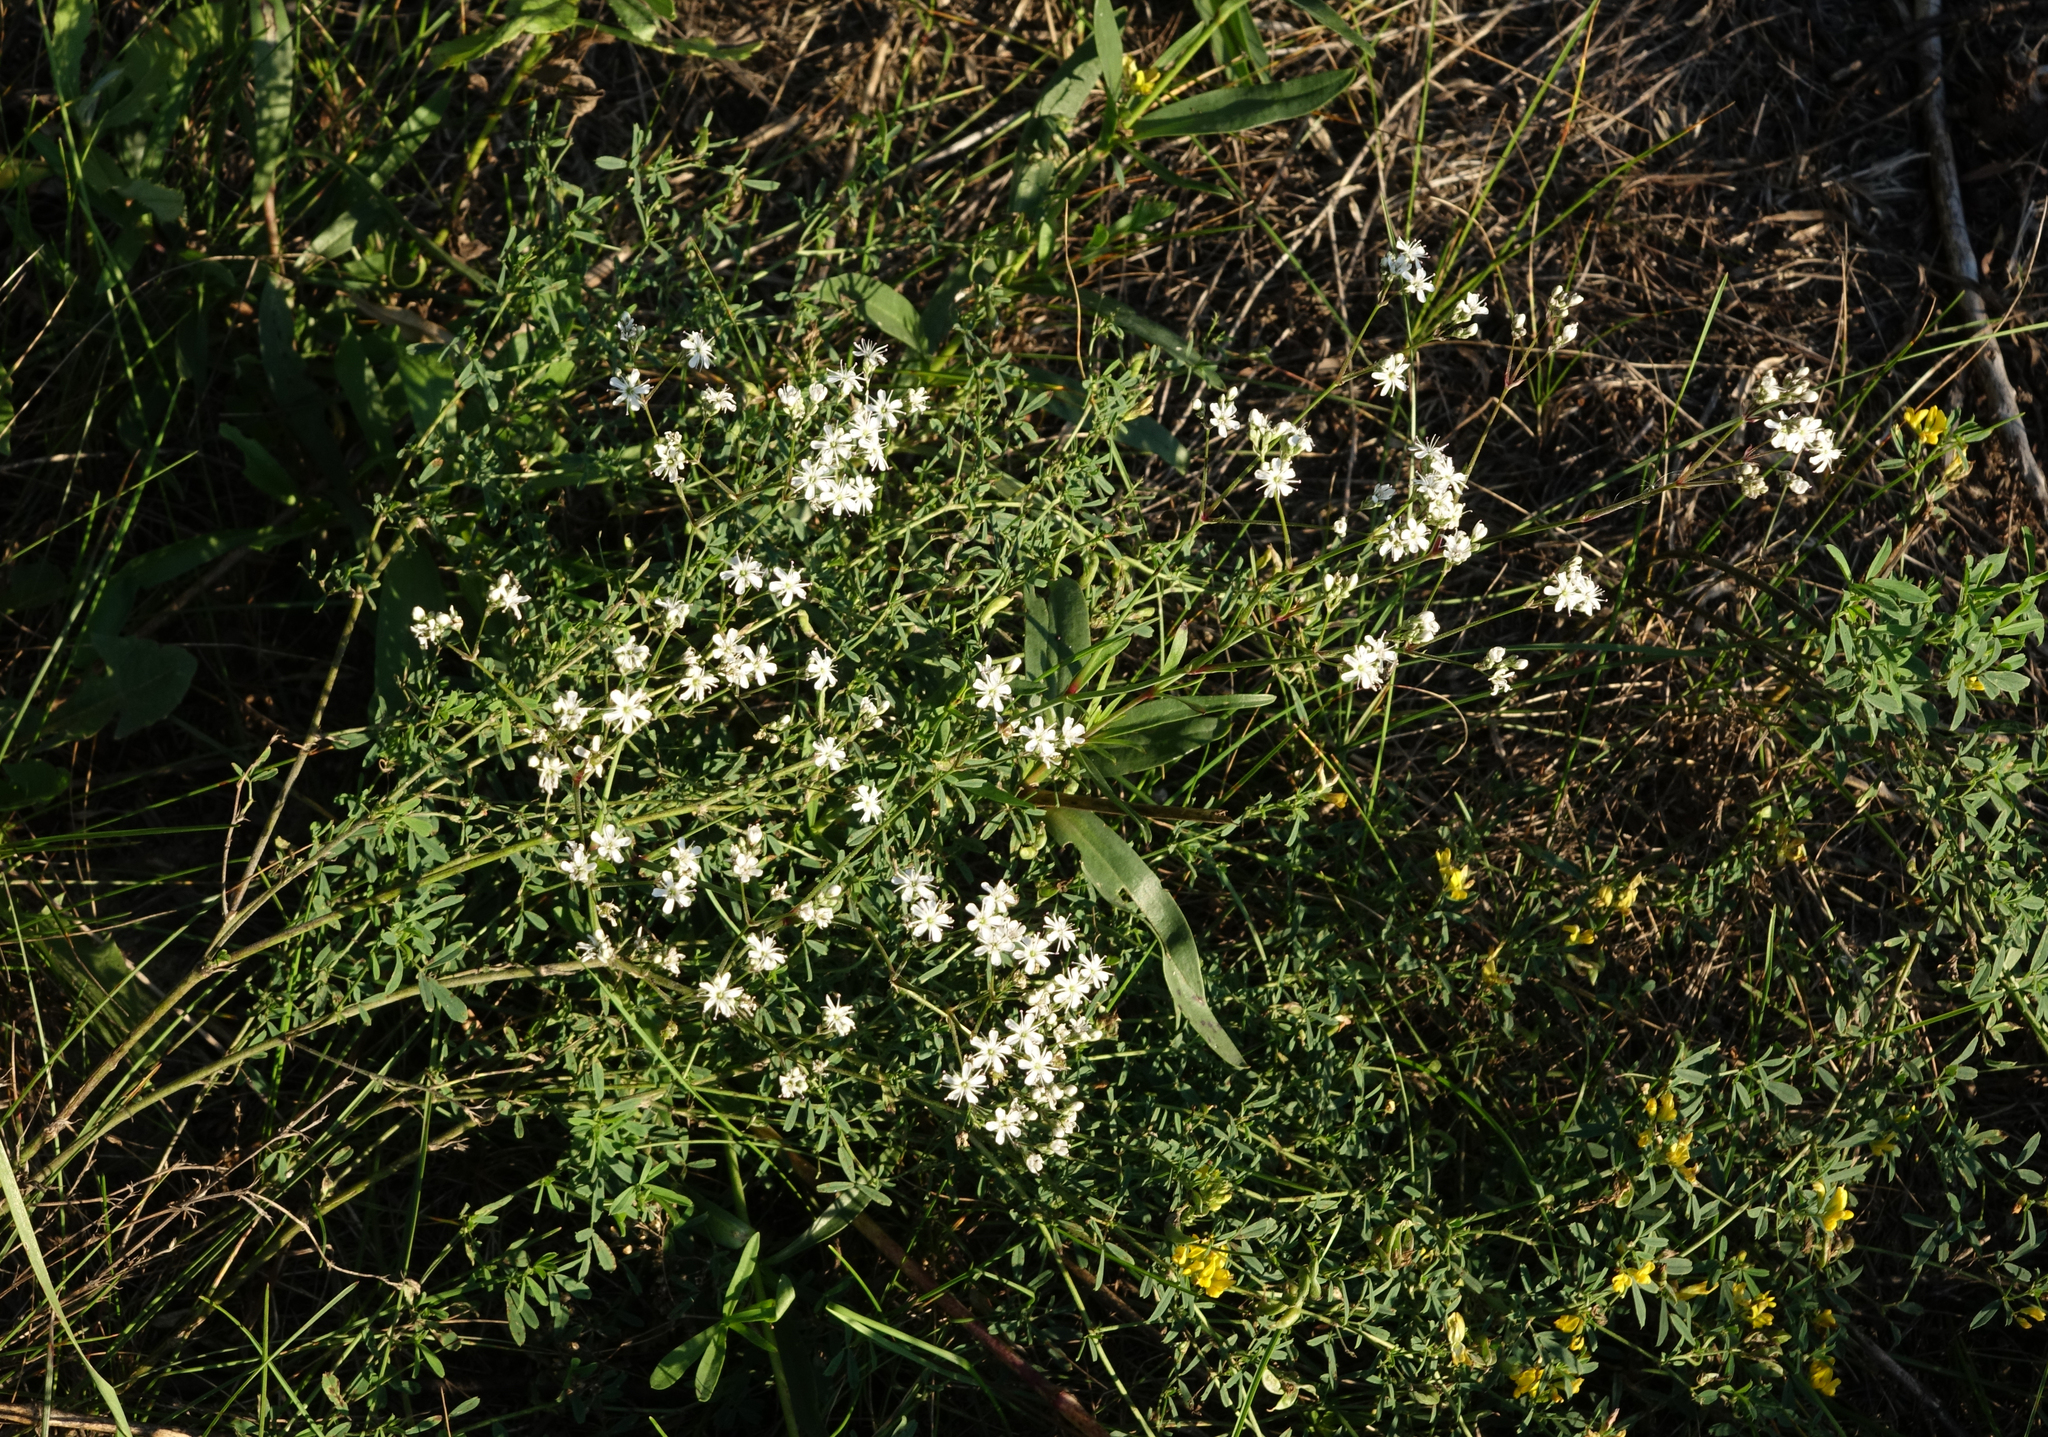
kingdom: Plantae
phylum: Tracheophyta
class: Magnoliopsida
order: Caryophyllales
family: Caryophyllaceae
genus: Gypsophila
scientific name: Gypsophila altissima
